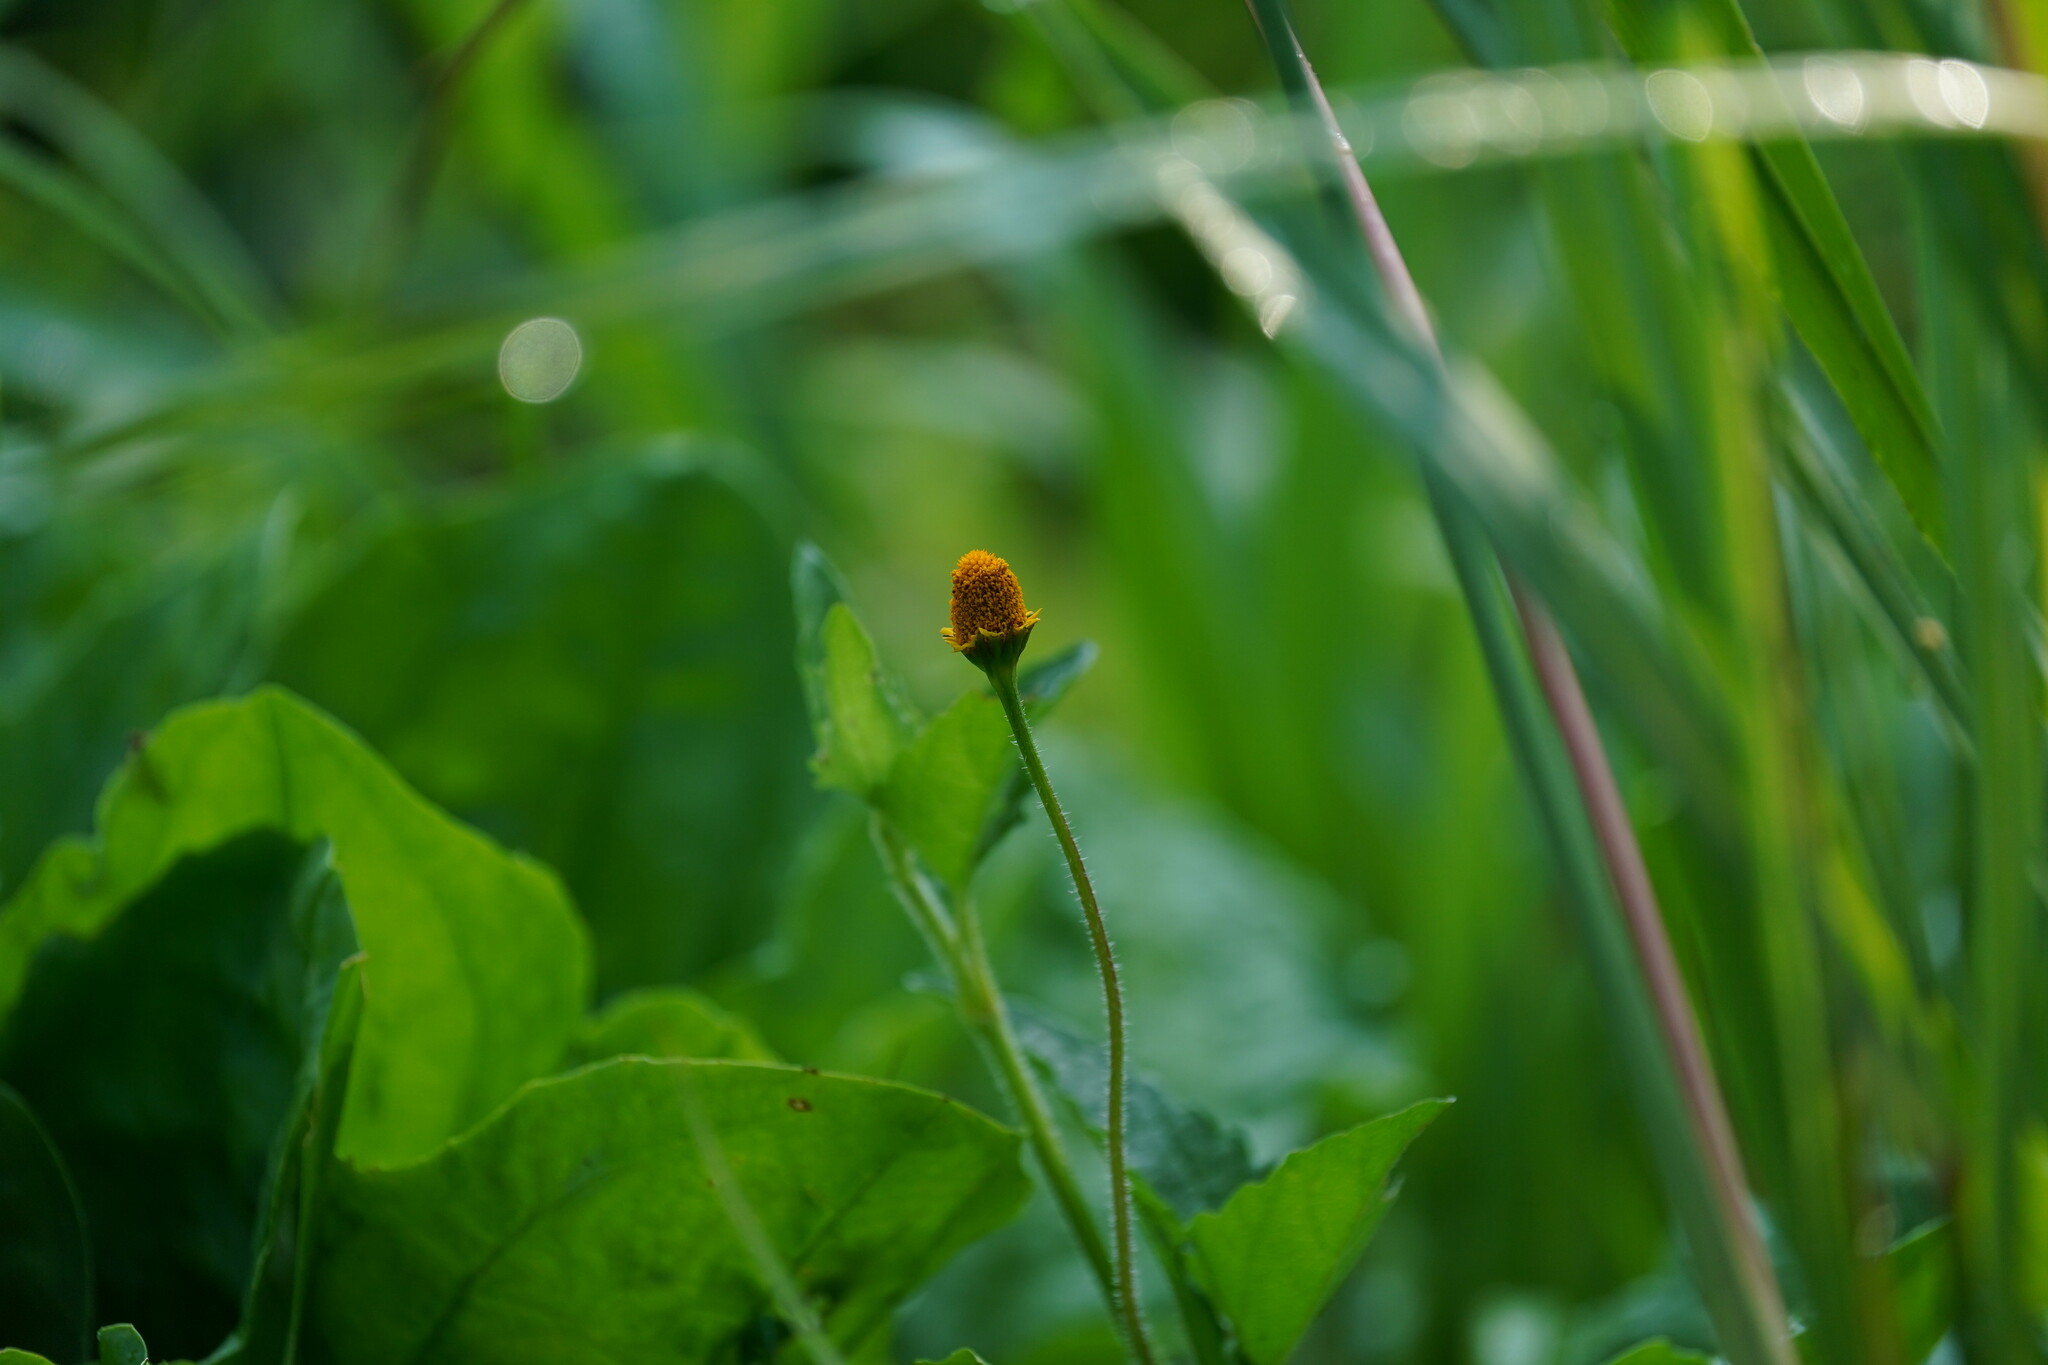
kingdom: Plantae
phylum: Tracheophyta
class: Magnoliopsida
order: Asterales
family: Asteraceae
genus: Acmella
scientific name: Acmella repens
